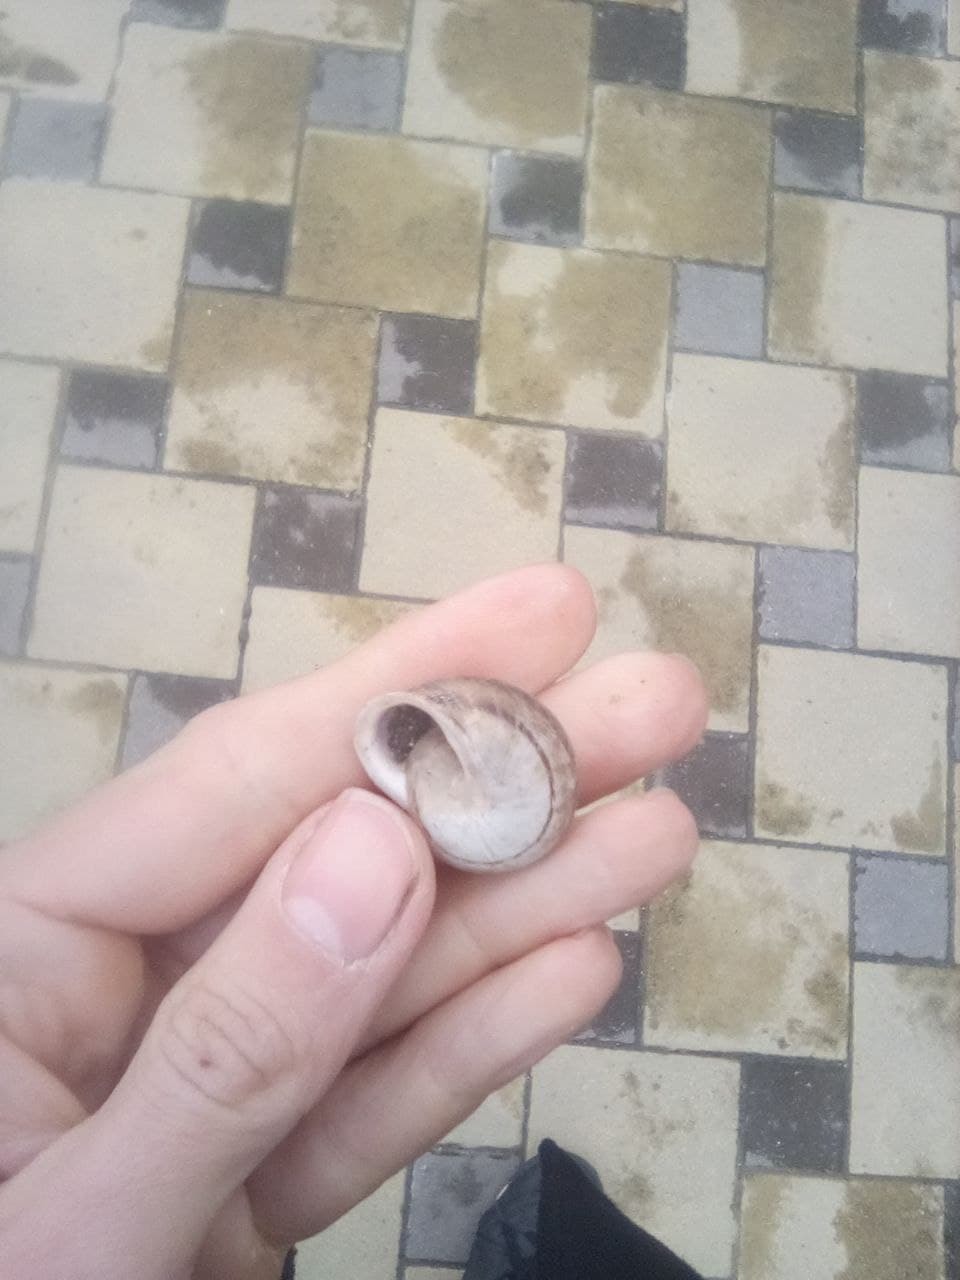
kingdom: Animalia
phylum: Mollusca
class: Gastropoda
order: Stylommatophora
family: Helicidae
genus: Eobania
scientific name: Eobania vermiculata
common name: Chocolateband snail
